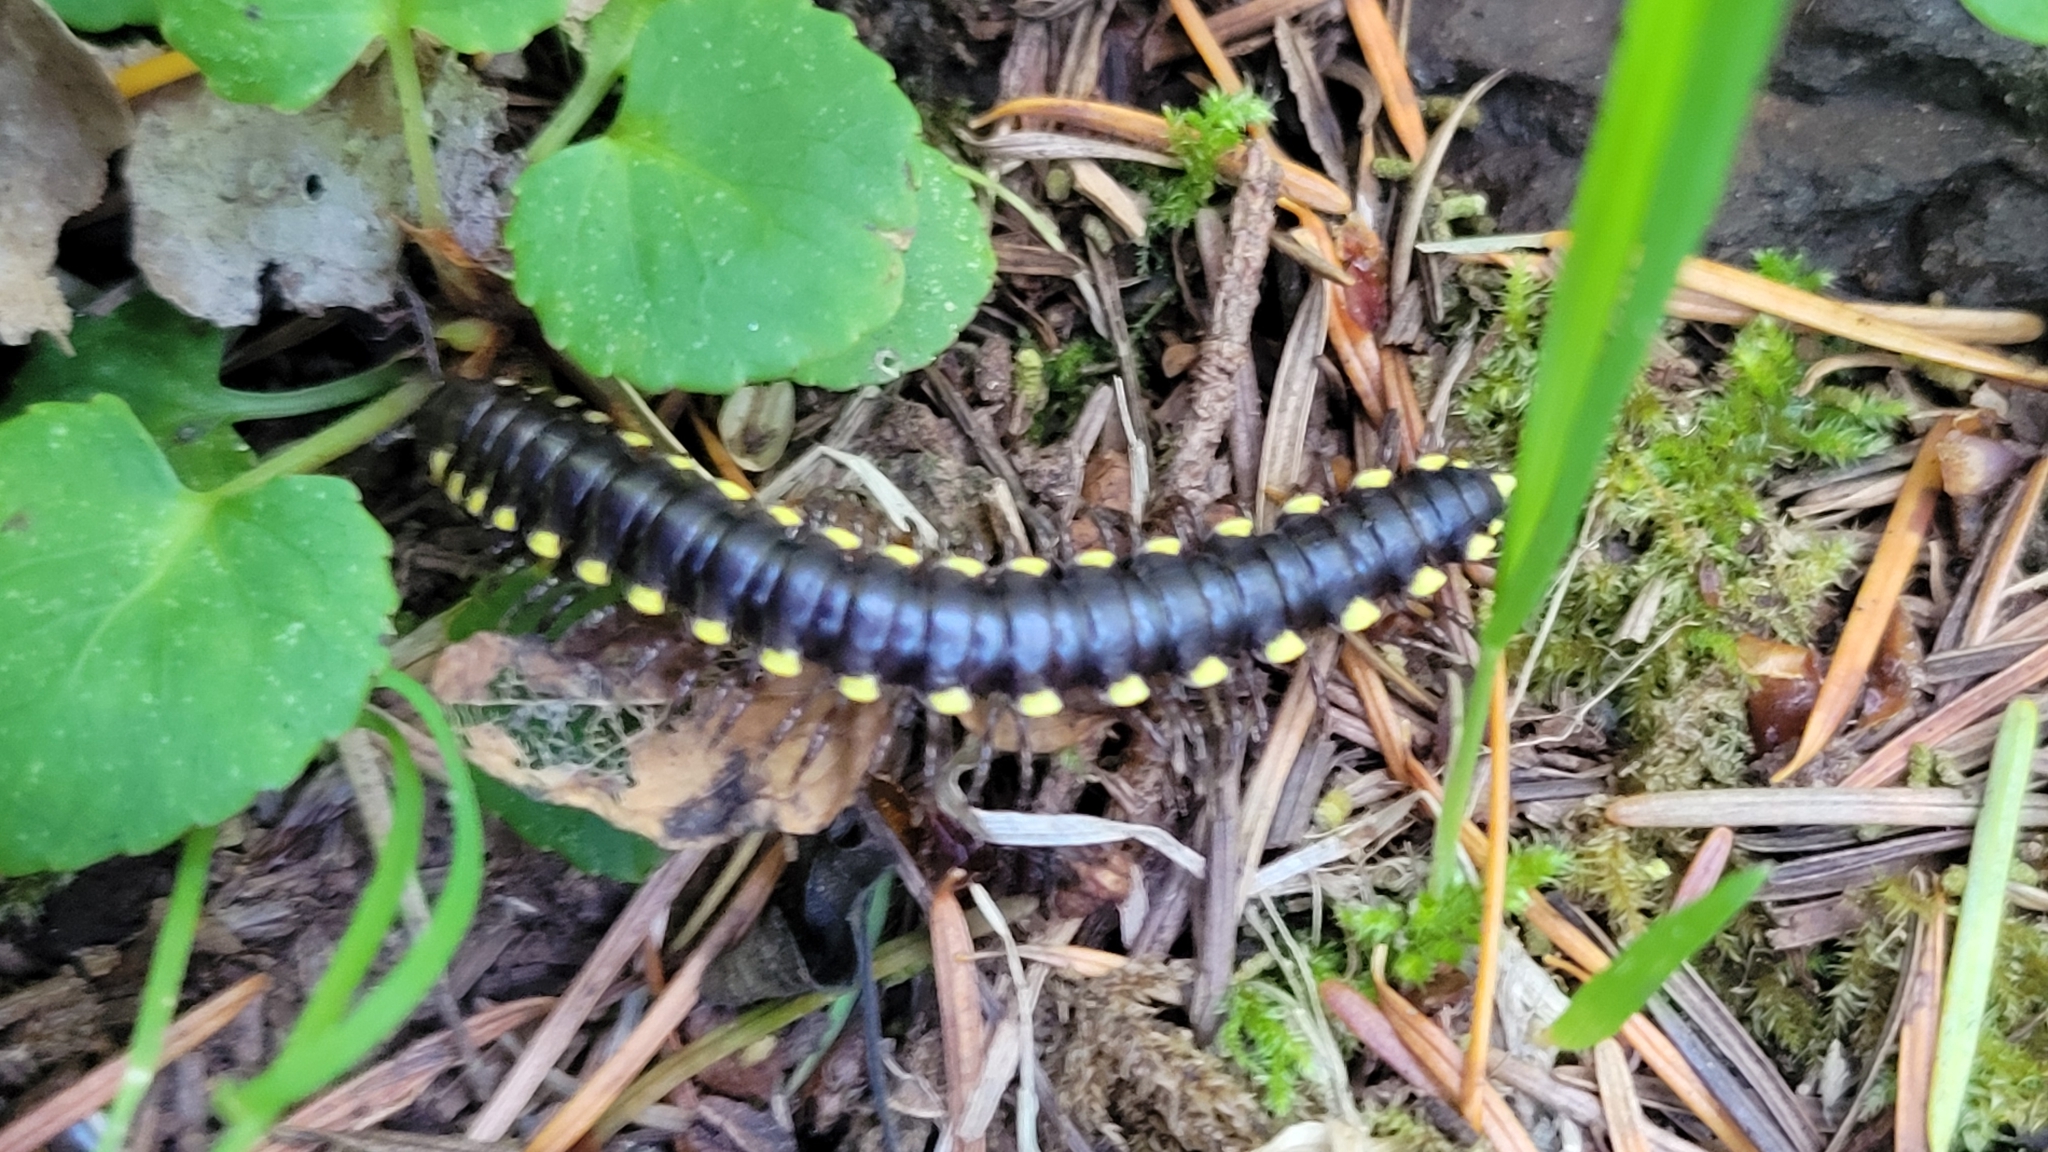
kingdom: Animalia
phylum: Arthropoda
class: Diplopoda
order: Polydesmida
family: Xystodesmidae
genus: Harpaphe
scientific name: Harpaphe haydeniana
